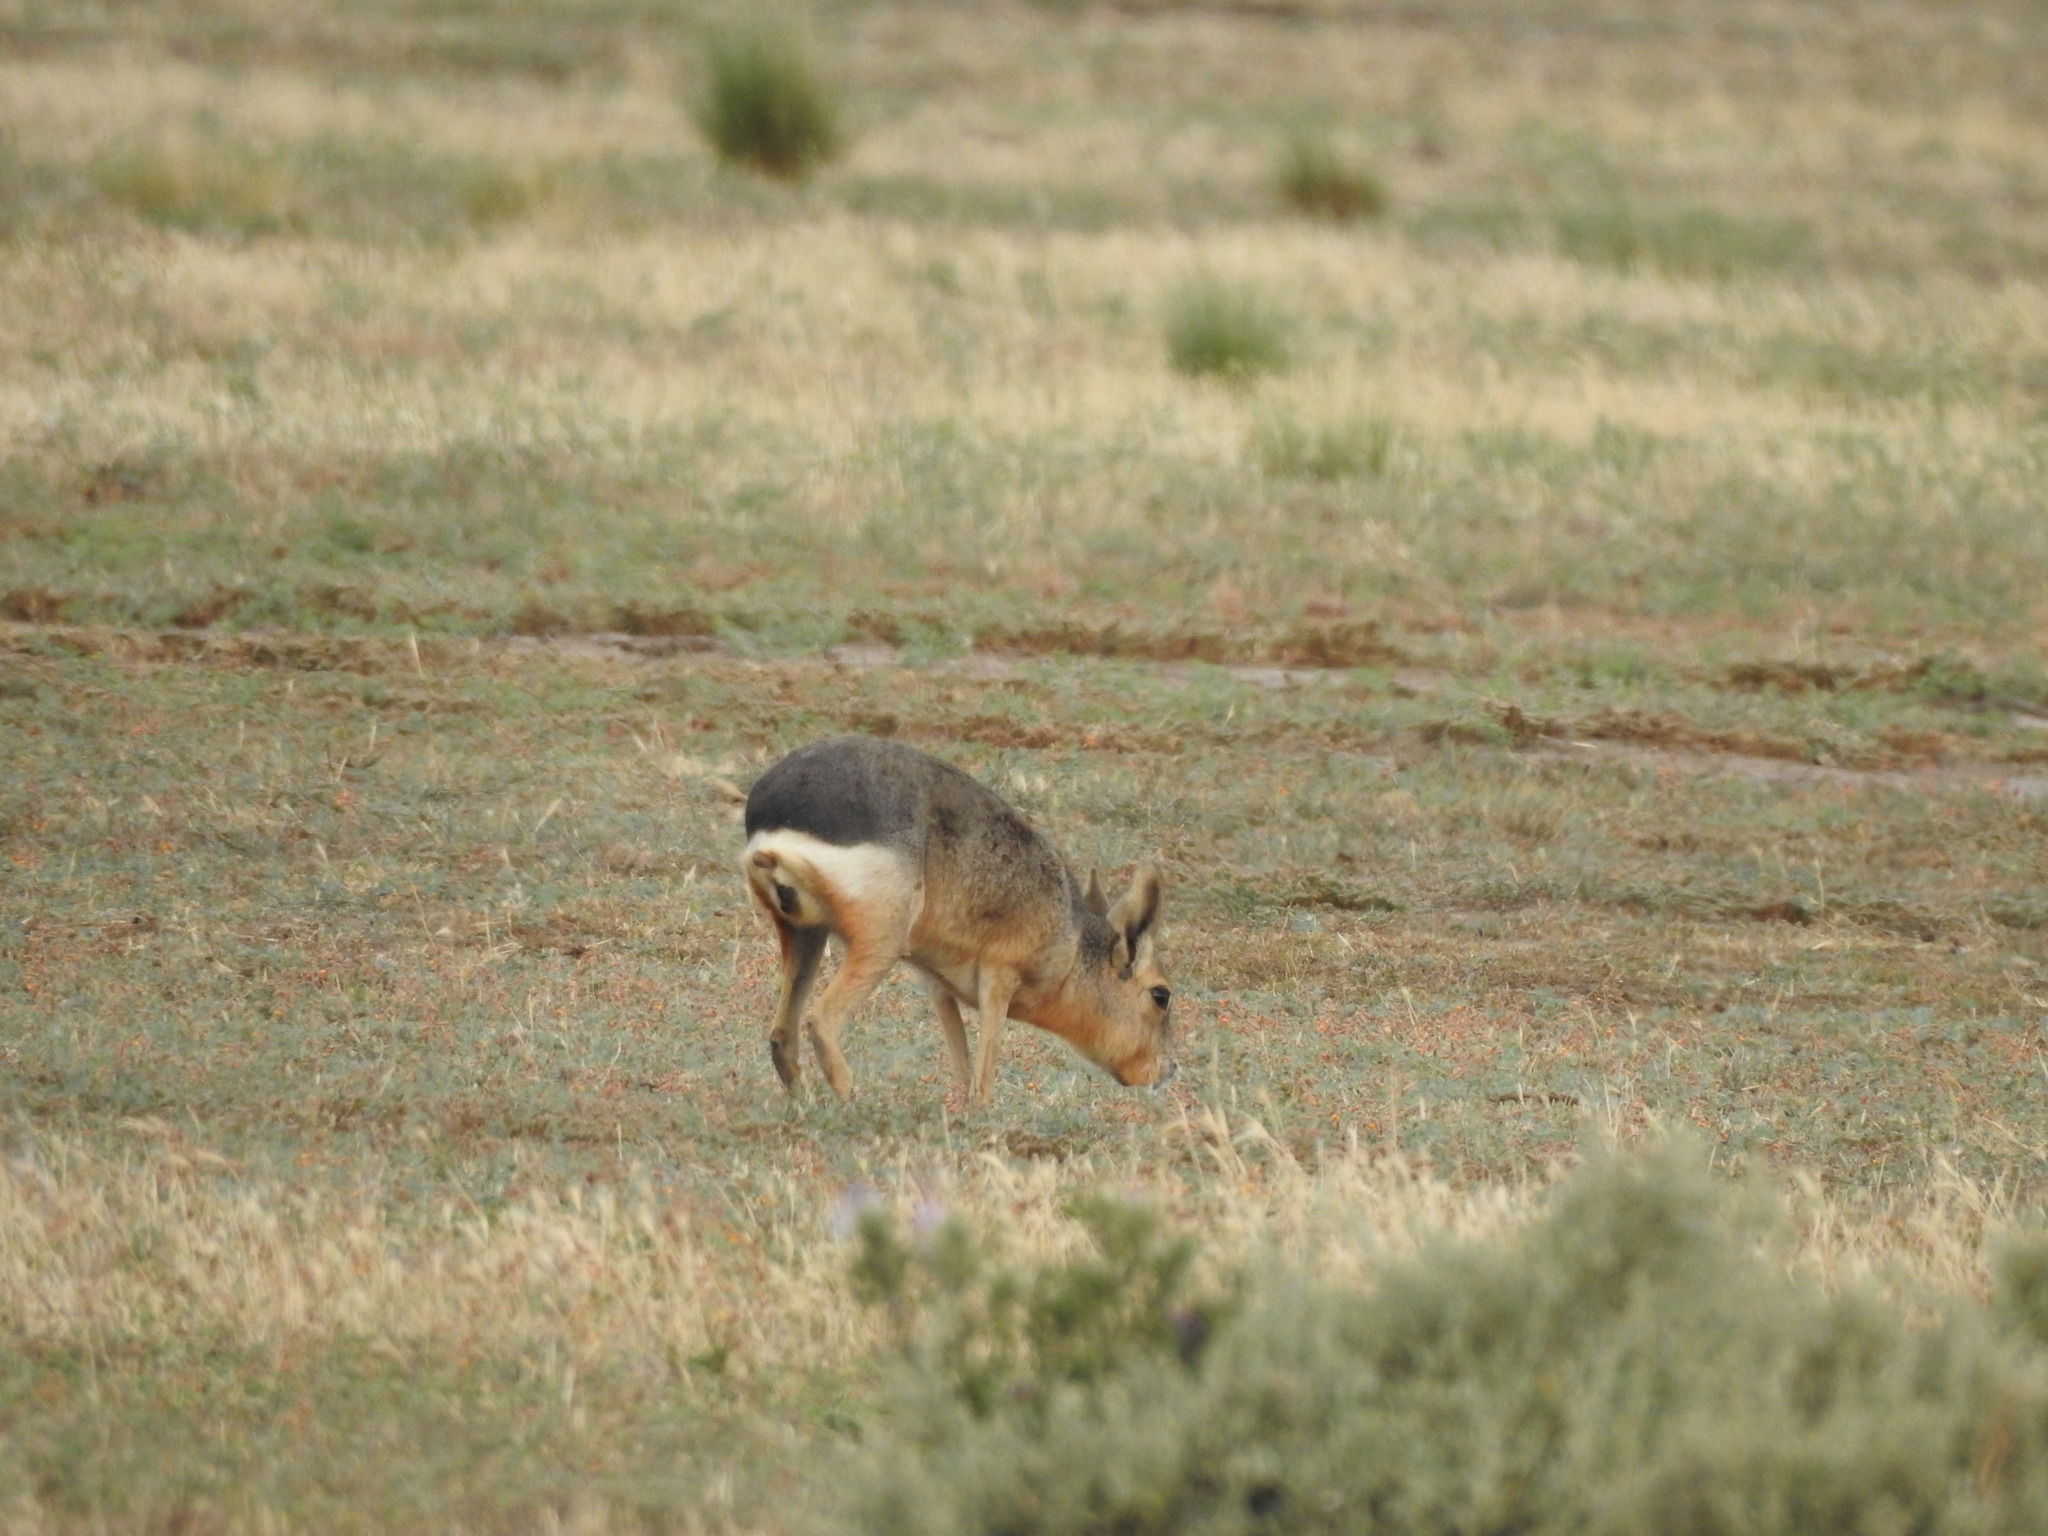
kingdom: Animalia
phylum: Chordata
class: Mammalia
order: Rodentia
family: Caviidae
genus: Dolichotis
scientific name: Dolichotis patagonum
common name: Patagonian mara
